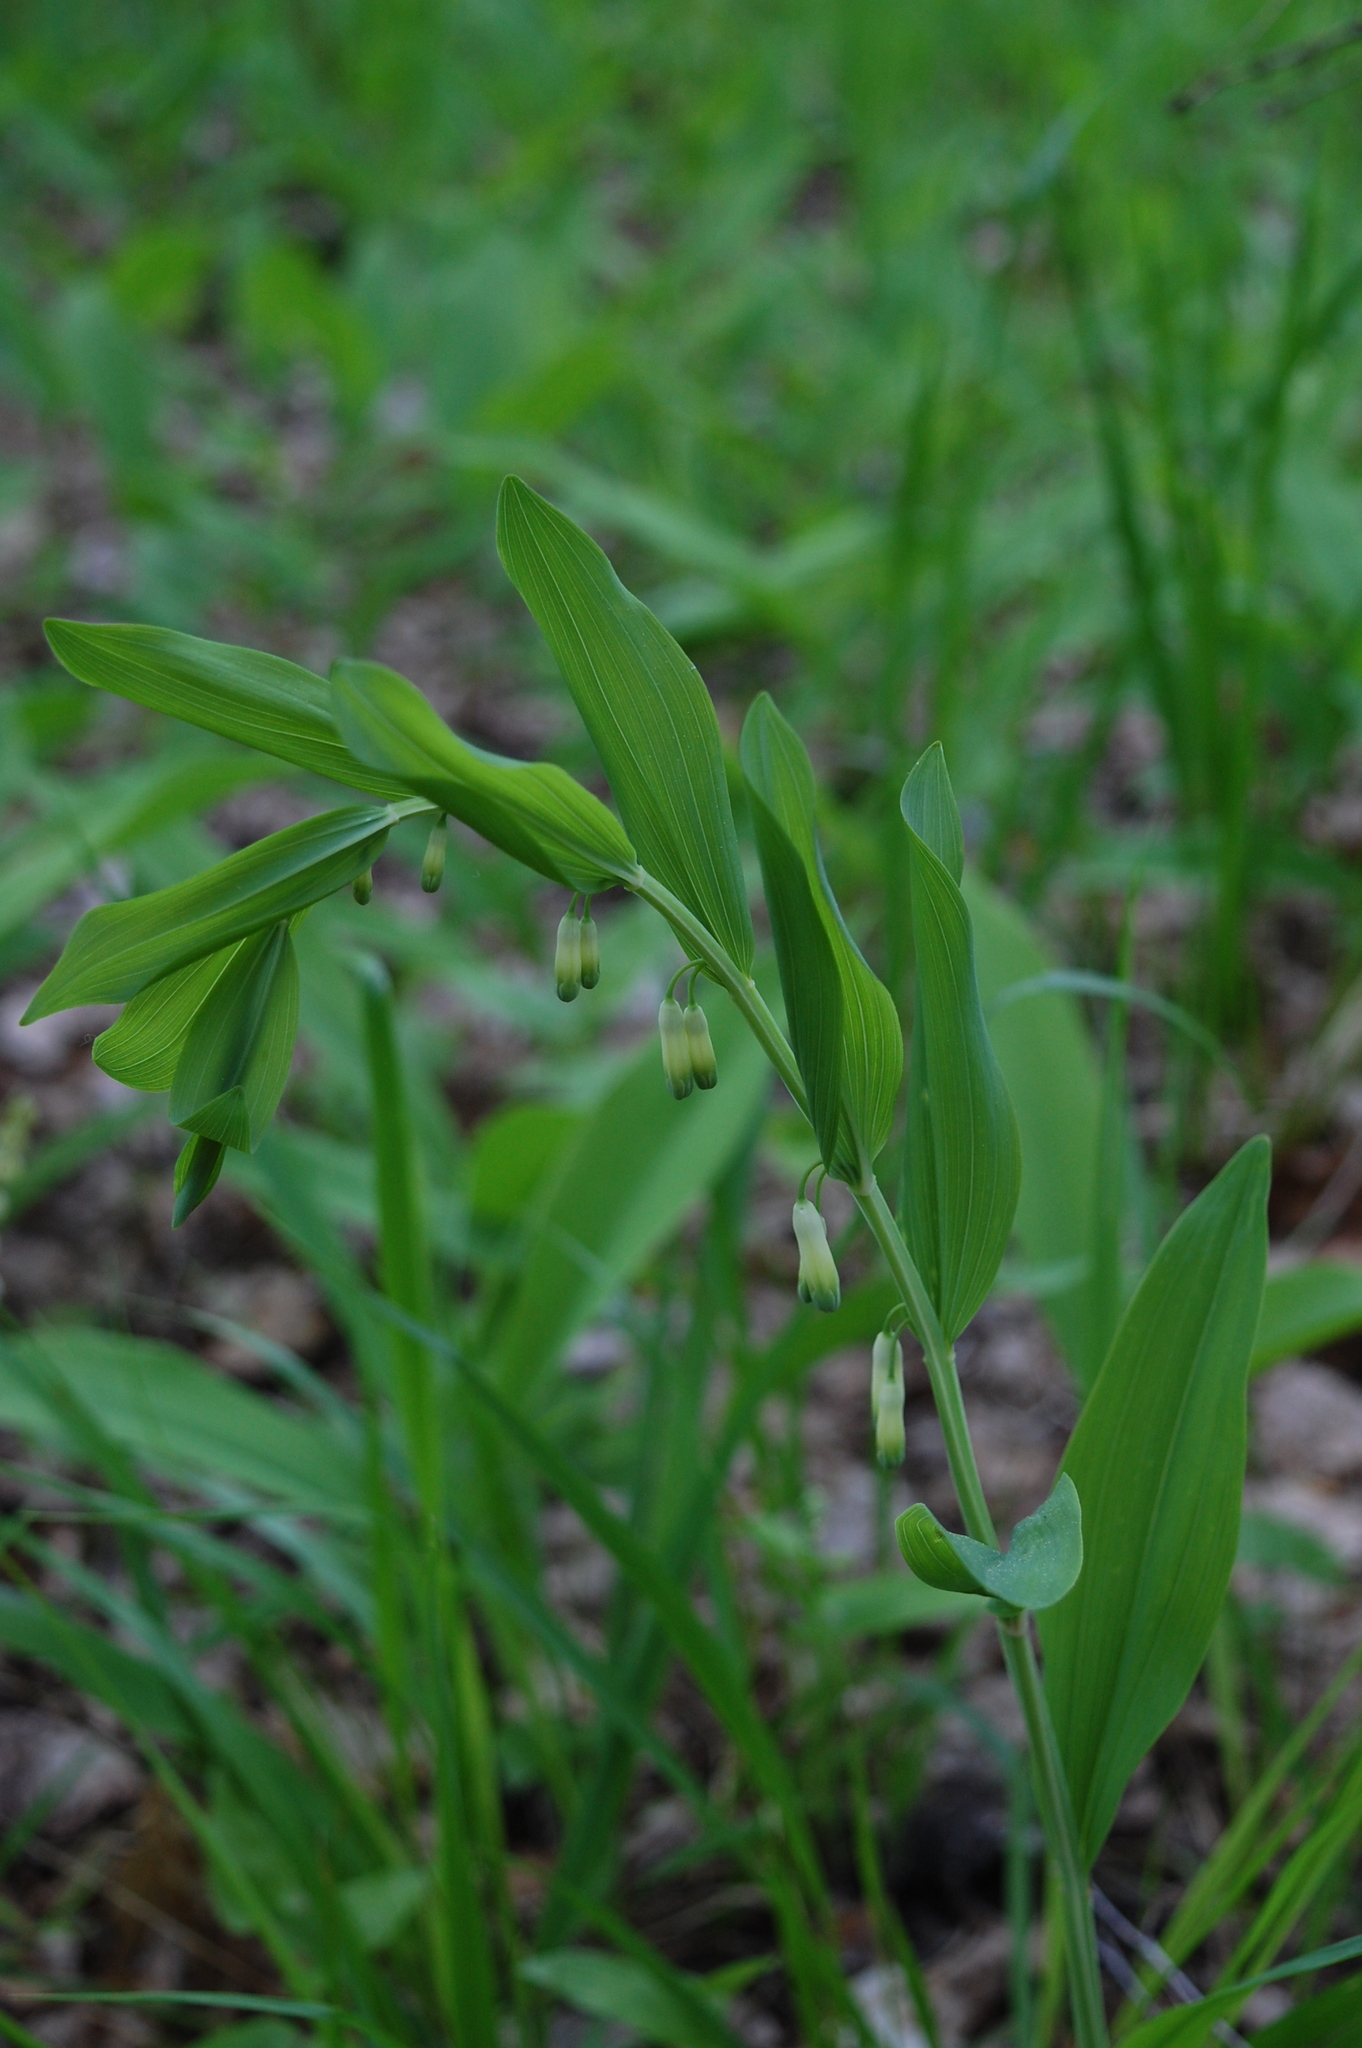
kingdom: Plantae
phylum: Tracheophyta
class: Liliopsida
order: Asparagales
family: Asparagaceae
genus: Polygonatum
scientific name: Polygonatum odoratum
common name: Angular solomon's-seal
